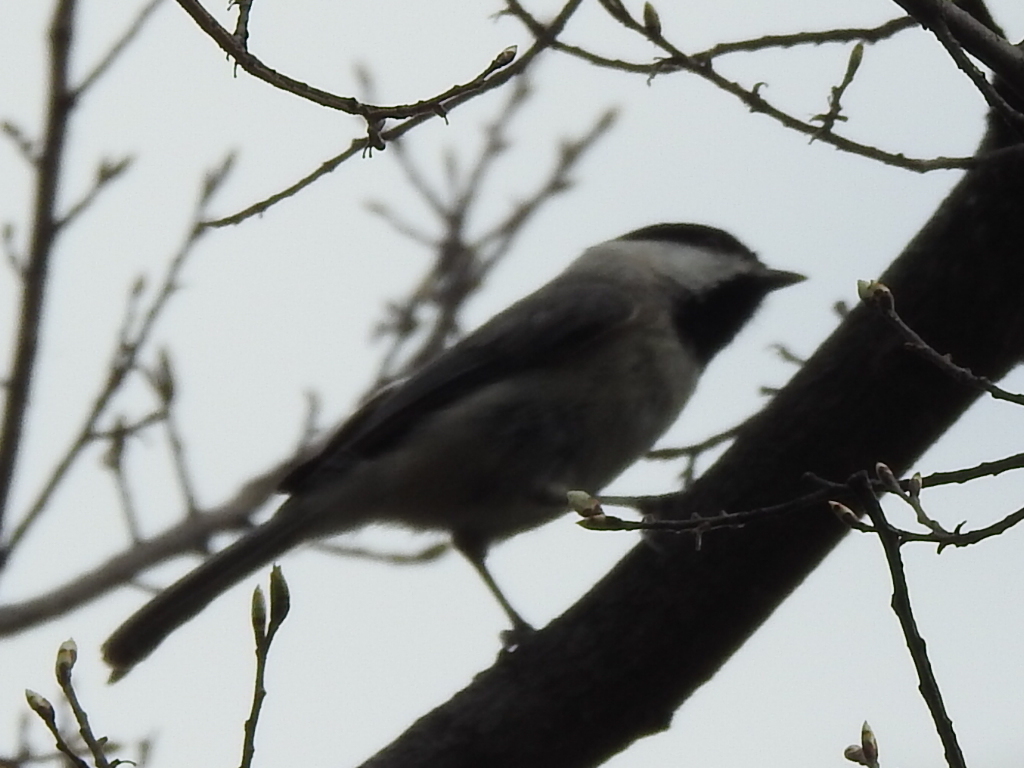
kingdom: Animalia
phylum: Chordata
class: Aves
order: Passeriformes
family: Paridae
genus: Poecile
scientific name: Poecile carolinensis
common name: Carolina chickadee
